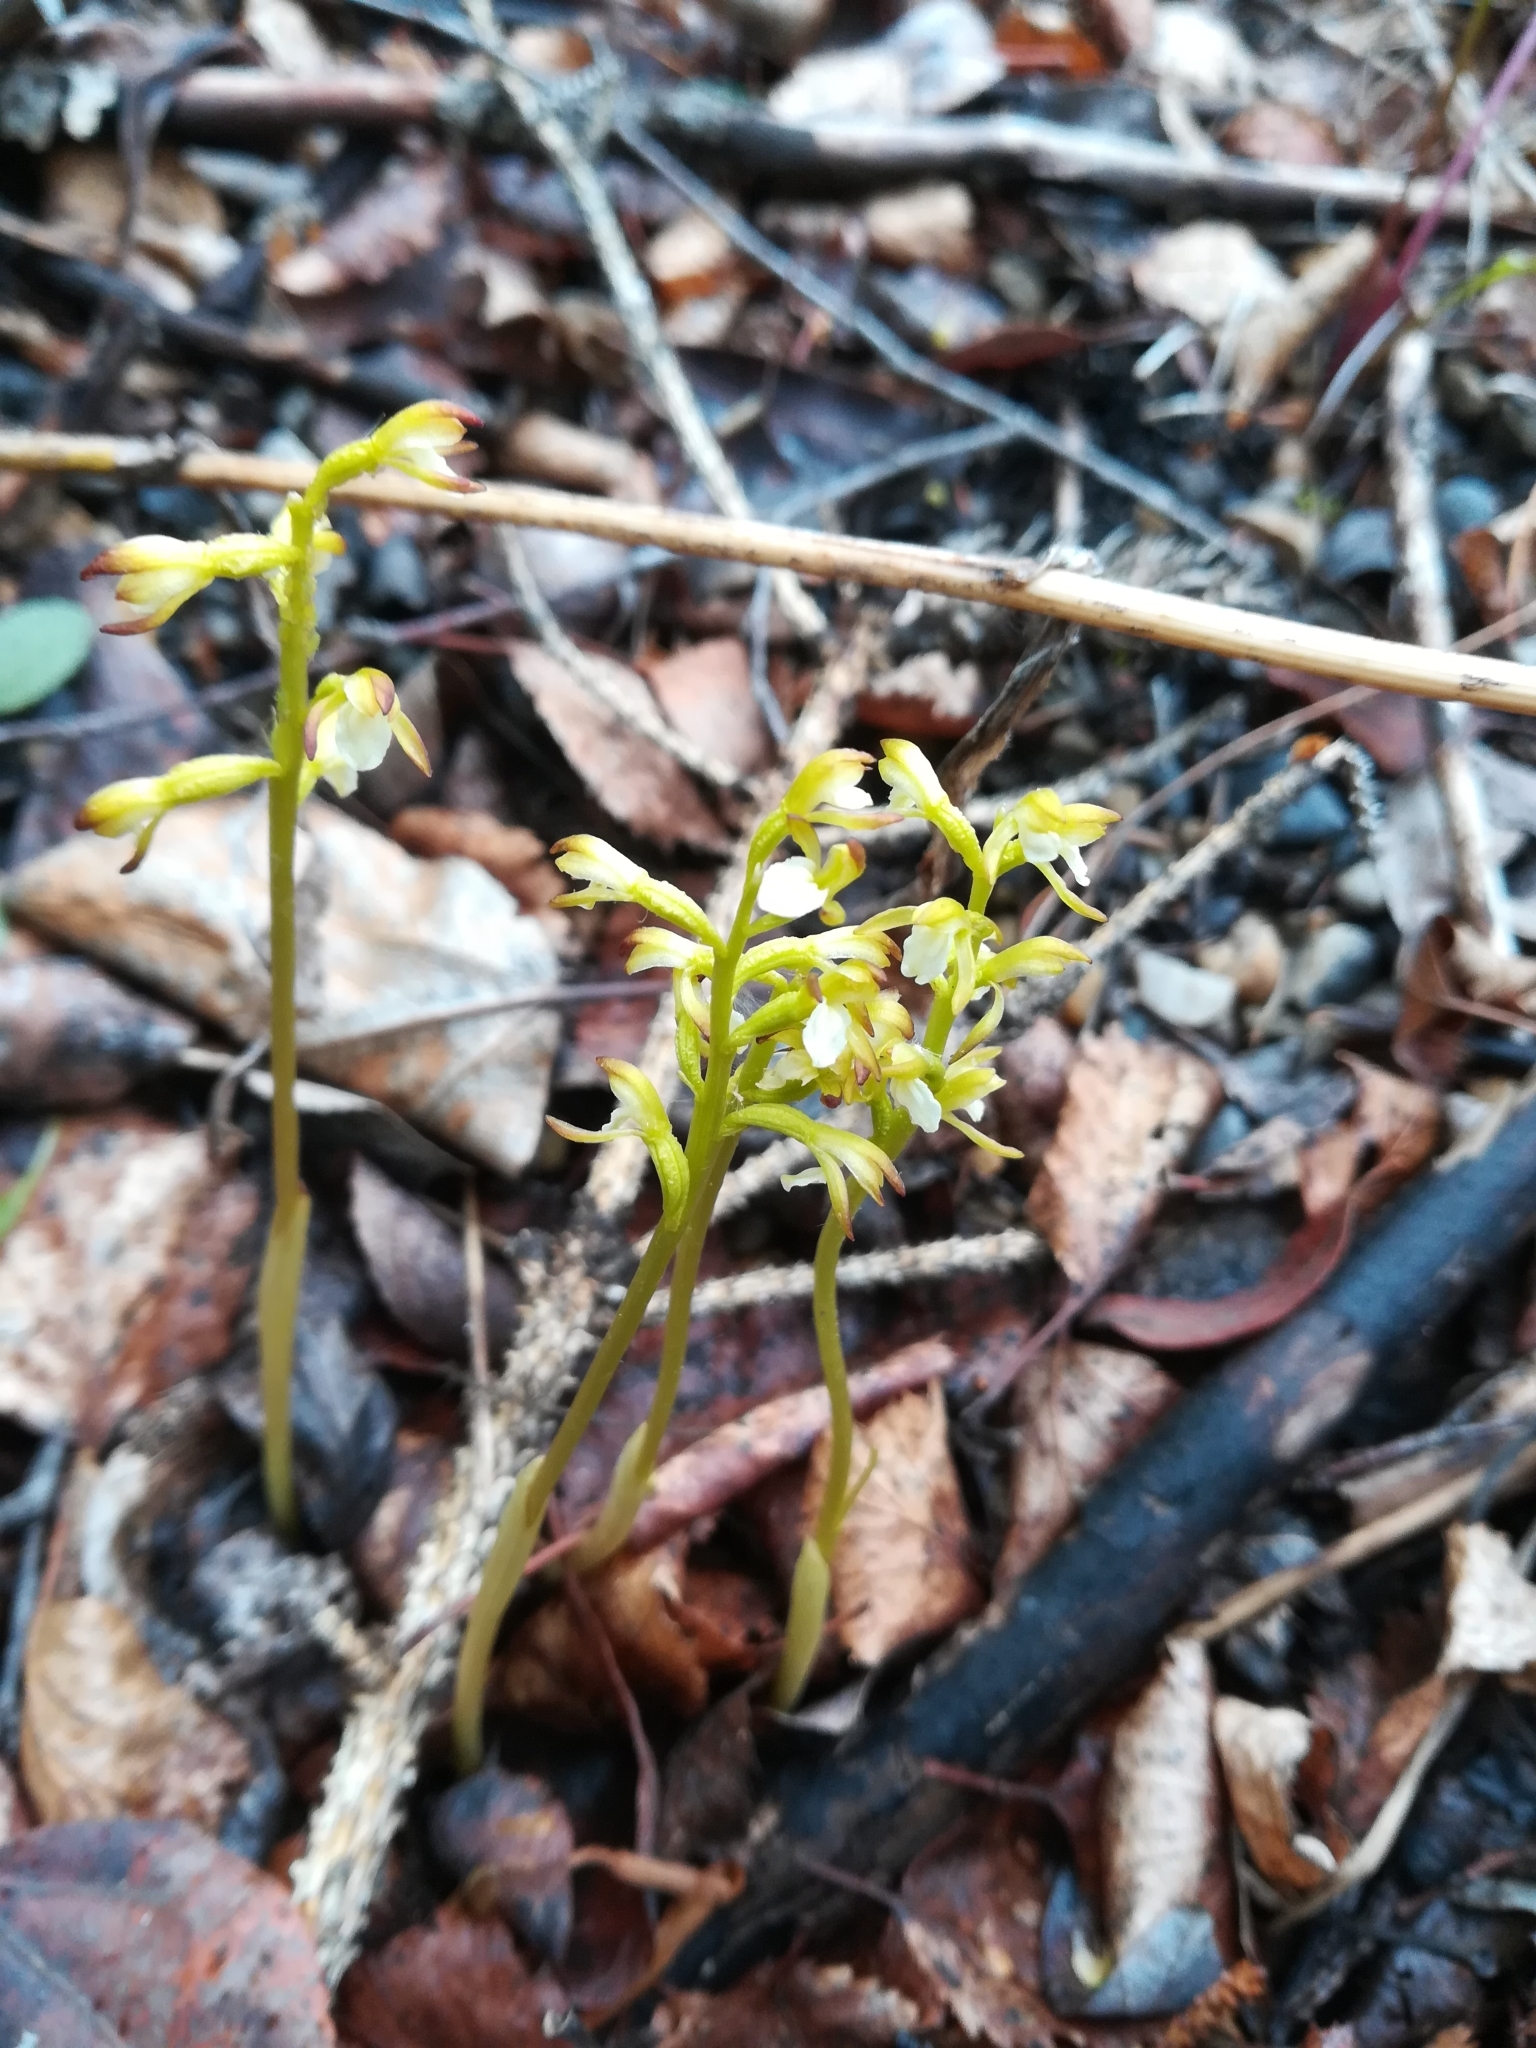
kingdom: Plantae
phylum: Tracheophyta
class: Liliopsida
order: Asparagales
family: Orchidaceae
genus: Corallorhiza
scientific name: Corallorhiza trifida
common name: Yellow coralroot
